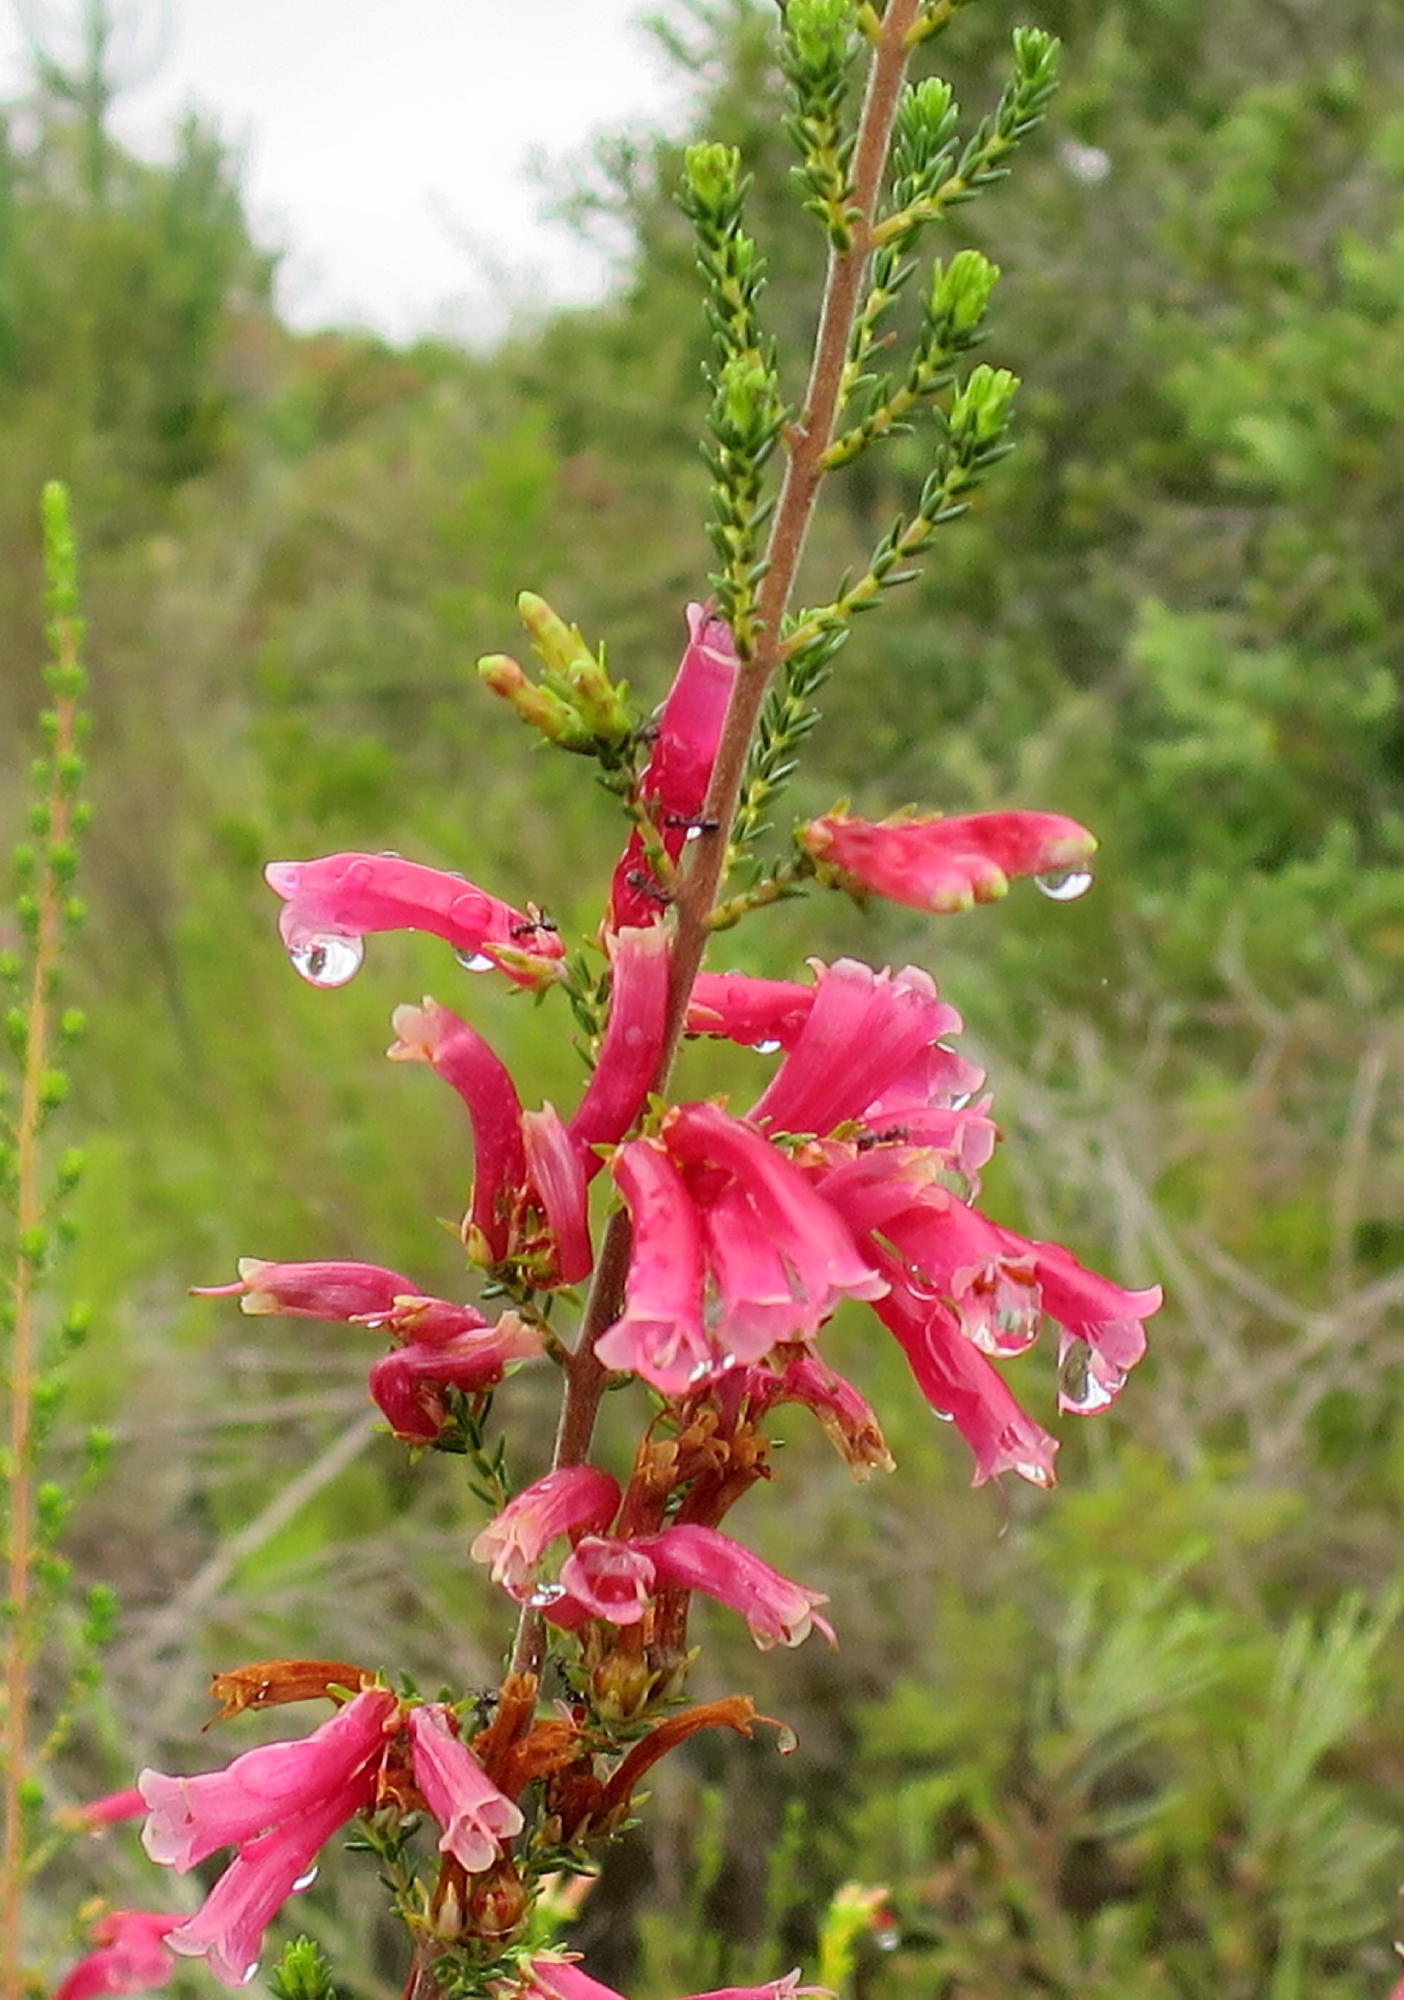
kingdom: Plantae
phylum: Tracheophyta
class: Magnoliopsida
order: Ericales
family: Ericaceae
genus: Erica
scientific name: Erica discolor
